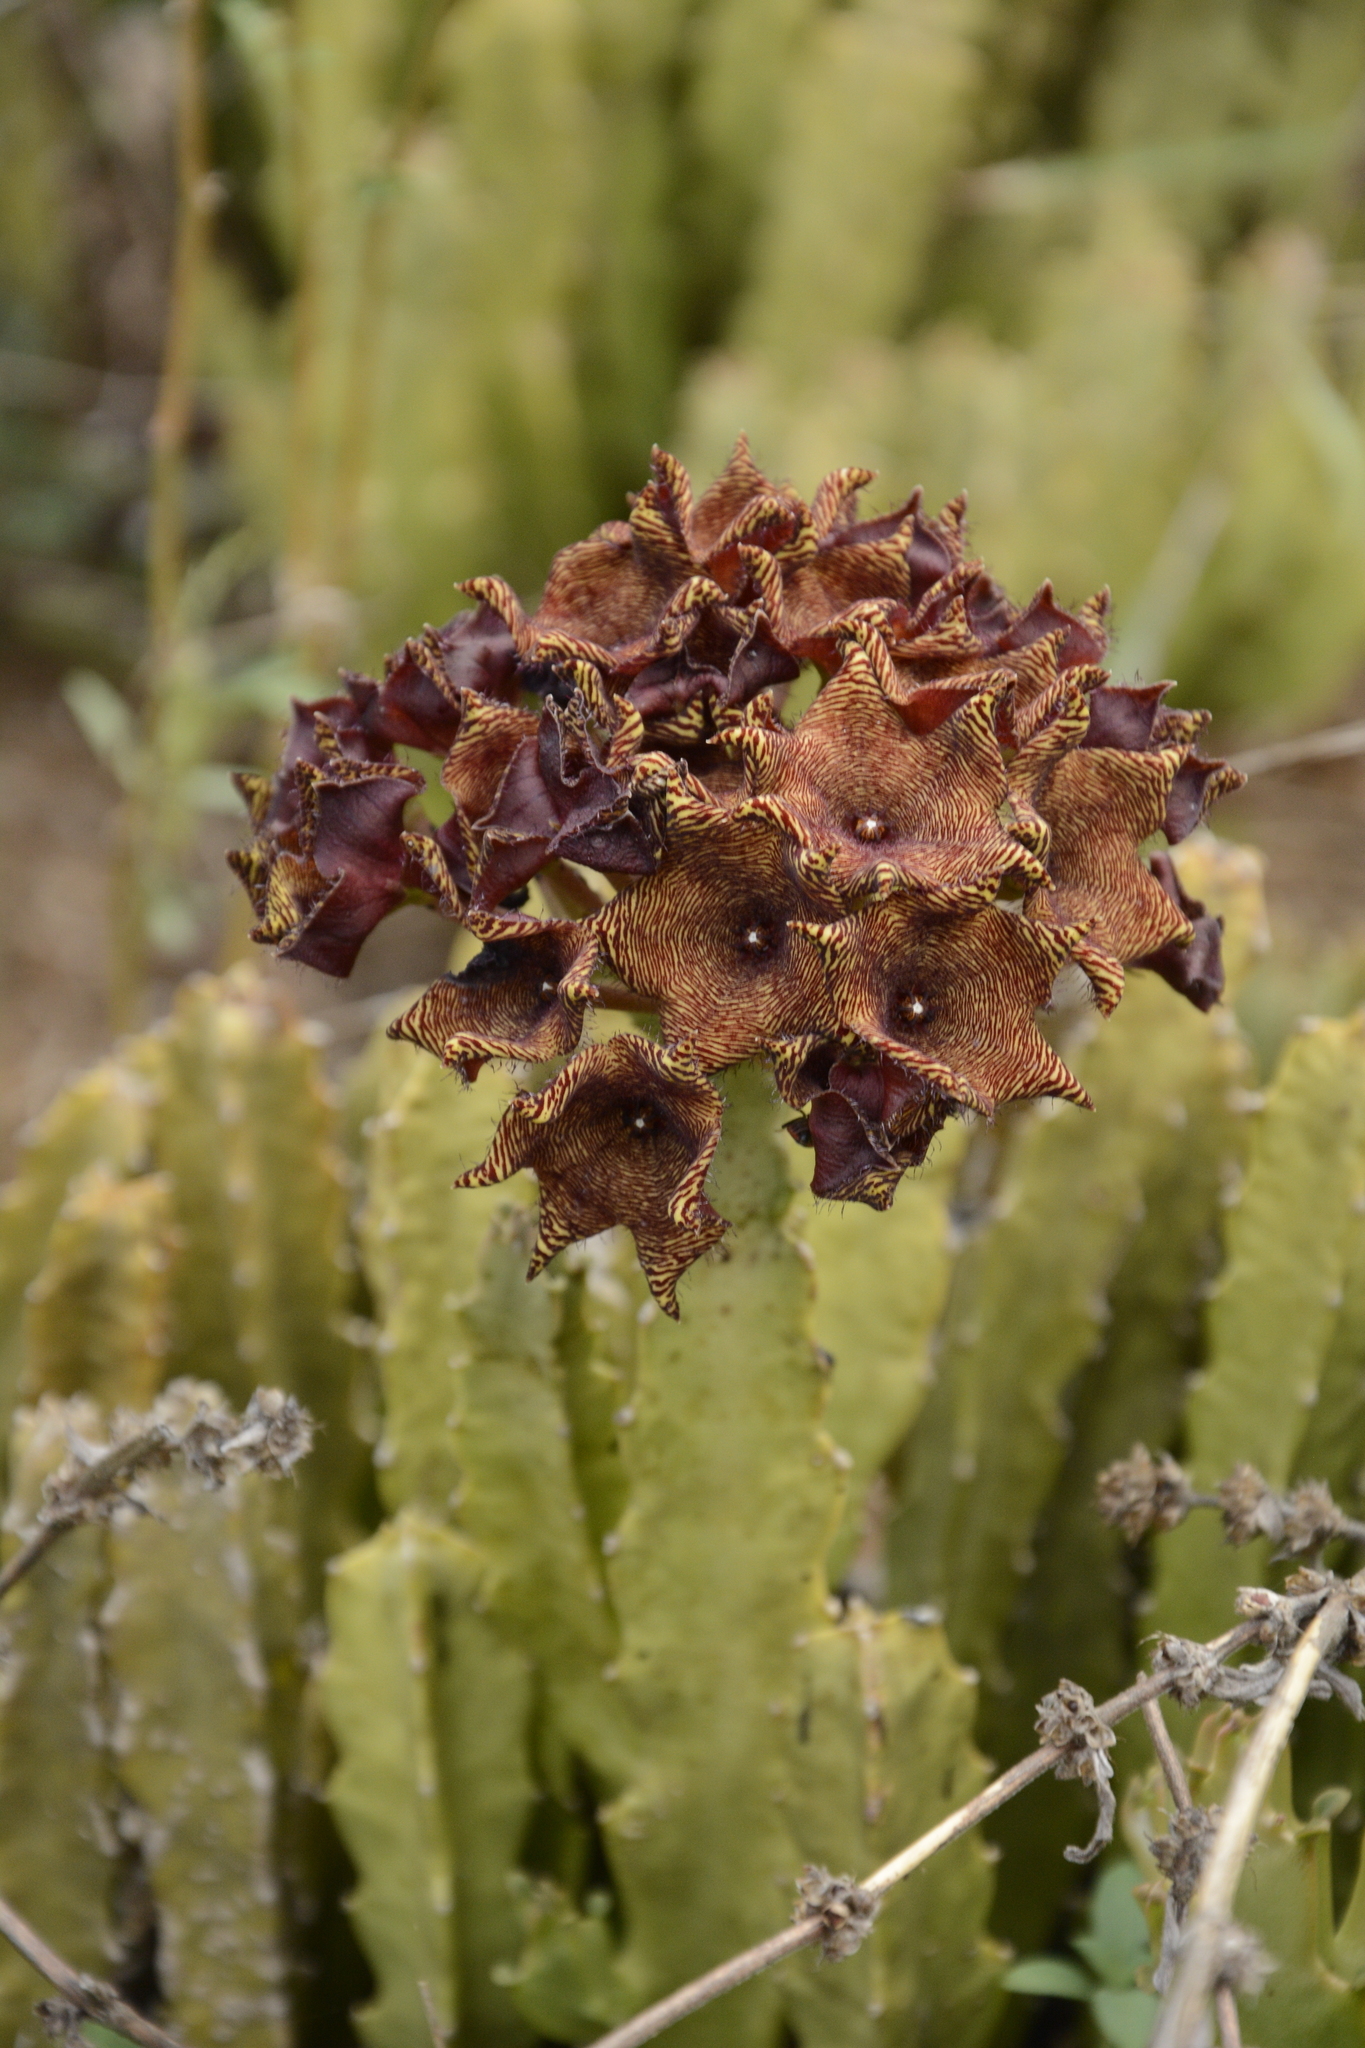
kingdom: Plantae
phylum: Tracheophyta
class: Magnoliopsida
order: Gentianales
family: Apocynaceae
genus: Ceropegia
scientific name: Ceropegia umbellata
